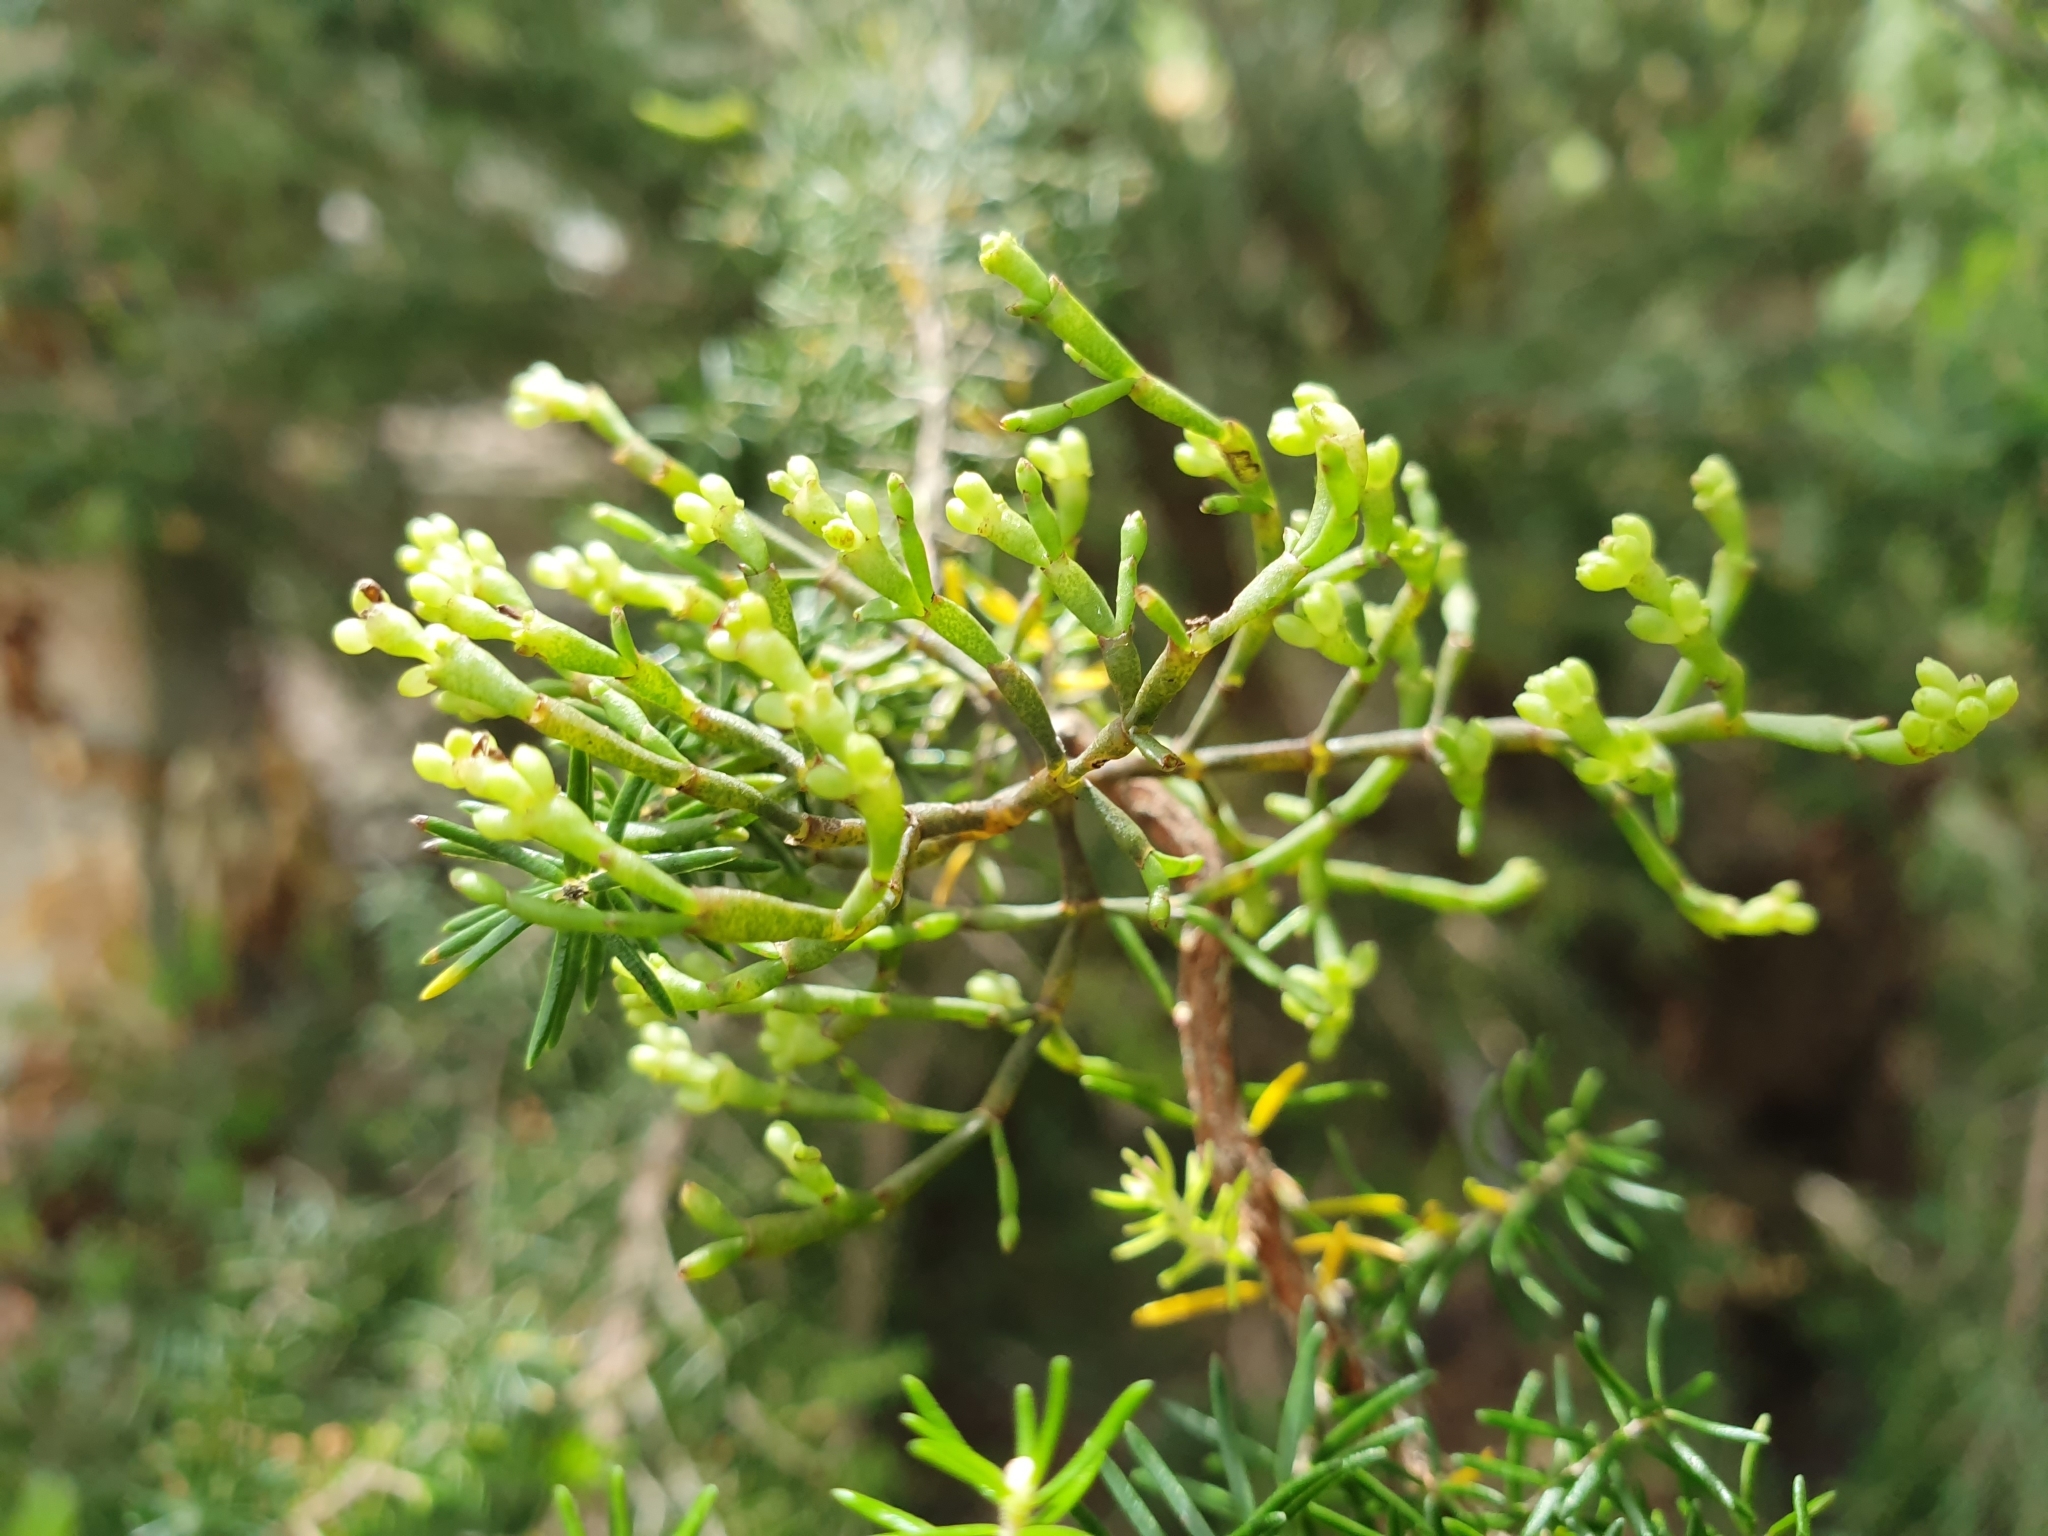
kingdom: Plantae
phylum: Tracheophyta
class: Magnoliopsida
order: Santalales
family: Viscaceae
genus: Korthalsella
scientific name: Korthalsella salicornioides
